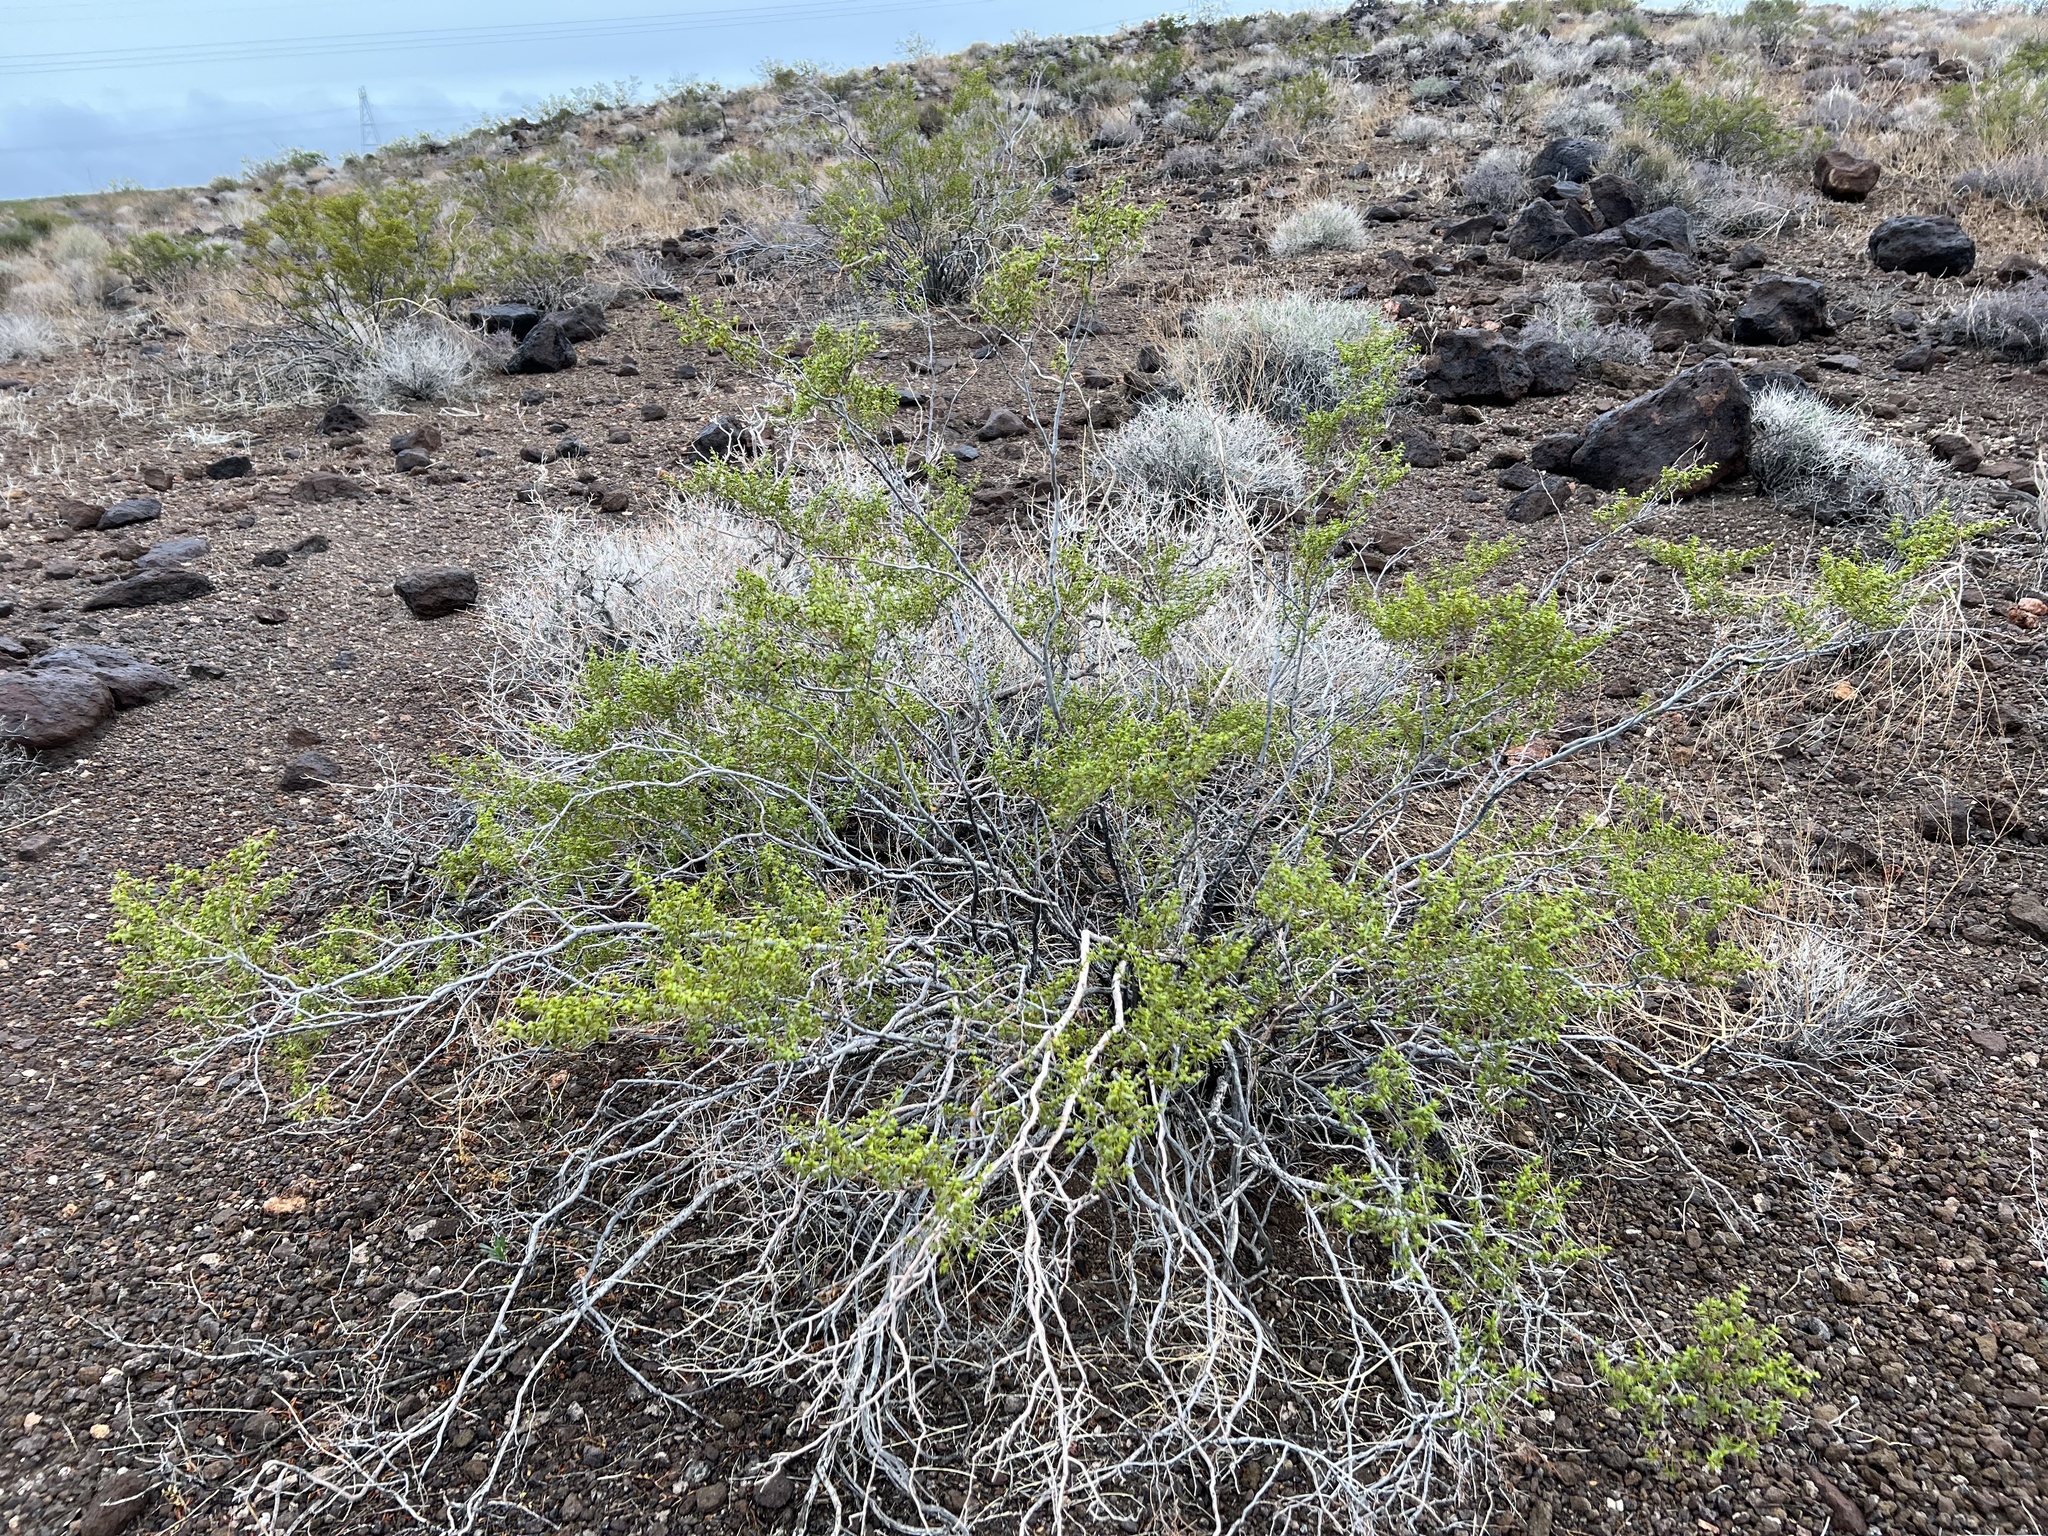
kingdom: Plantae
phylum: Tracheophyta
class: Magnoliopsida
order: Zygophyllales
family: Zygophyllaceae
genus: Larrea
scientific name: Larrea tridentata
